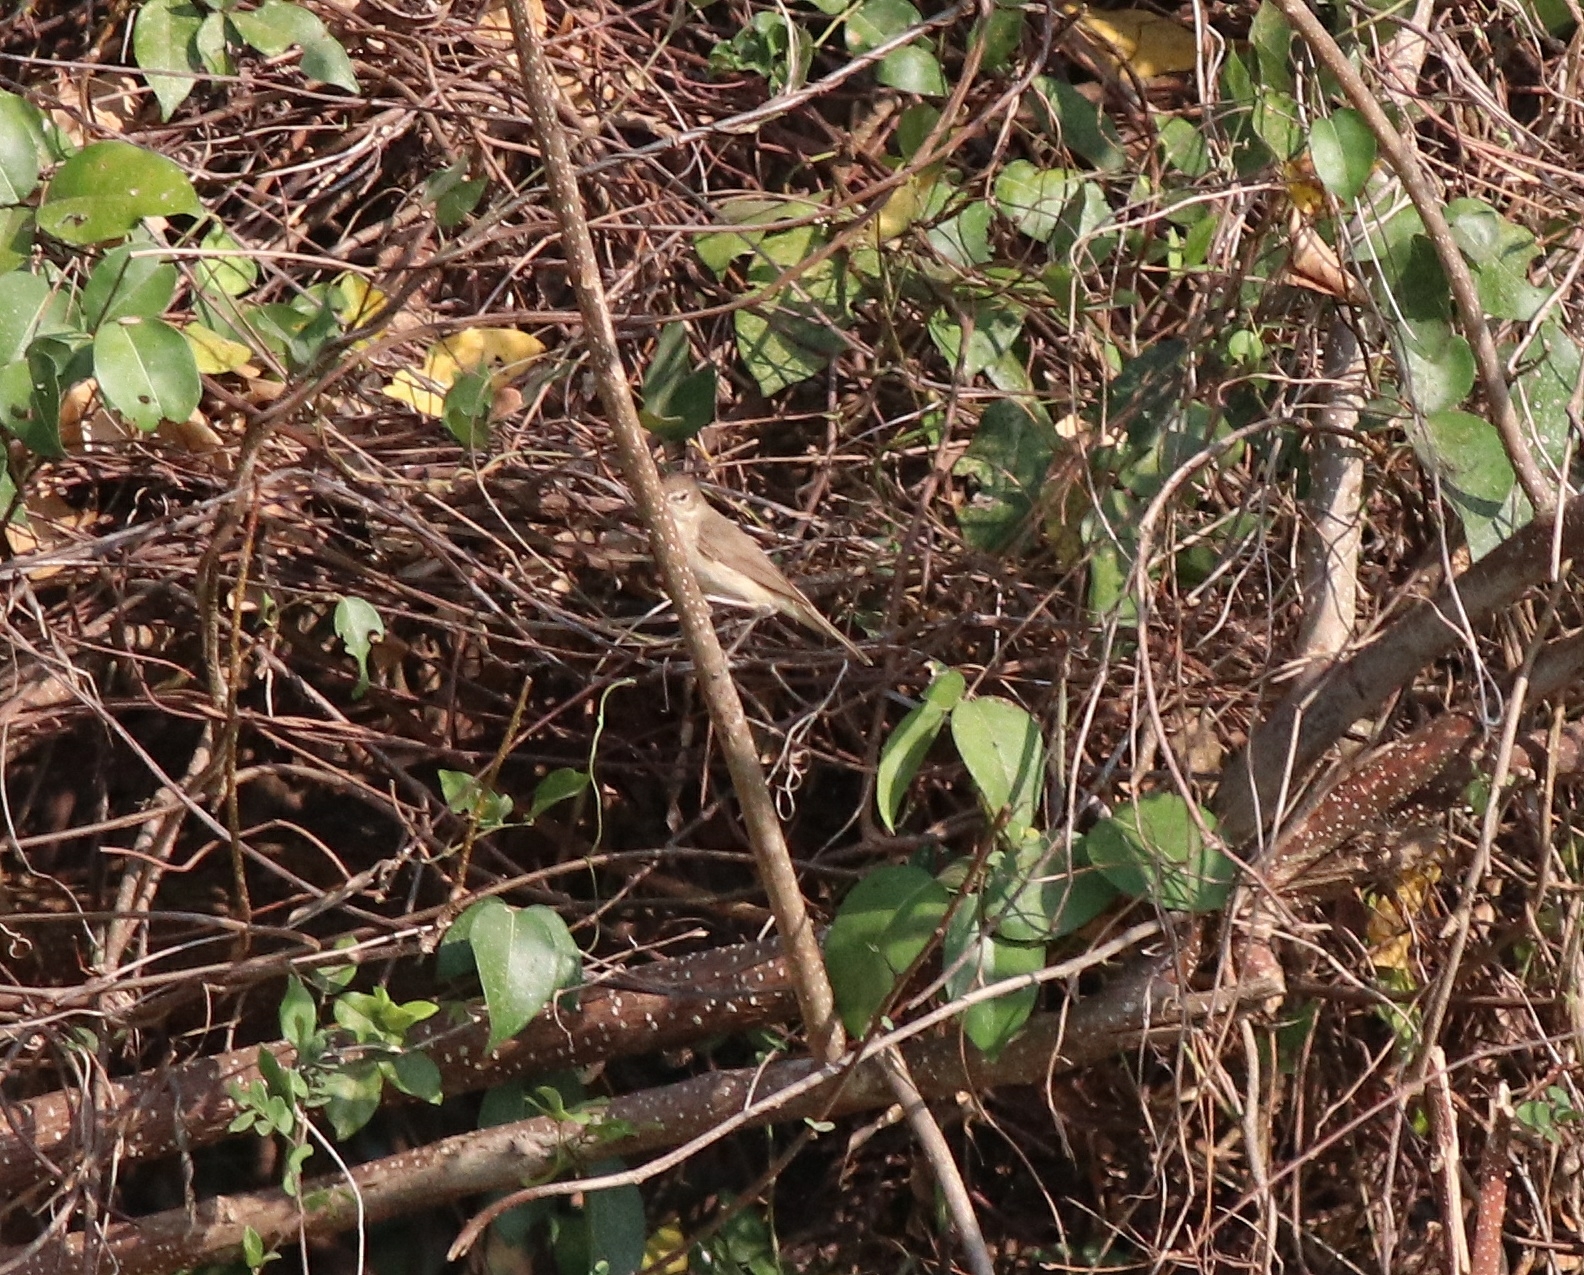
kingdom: Animalia
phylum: Chordata
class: Aves
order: Passeriformes
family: Cisticolidae
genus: Prinia
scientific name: Prinia inornata
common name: Plain prinia
